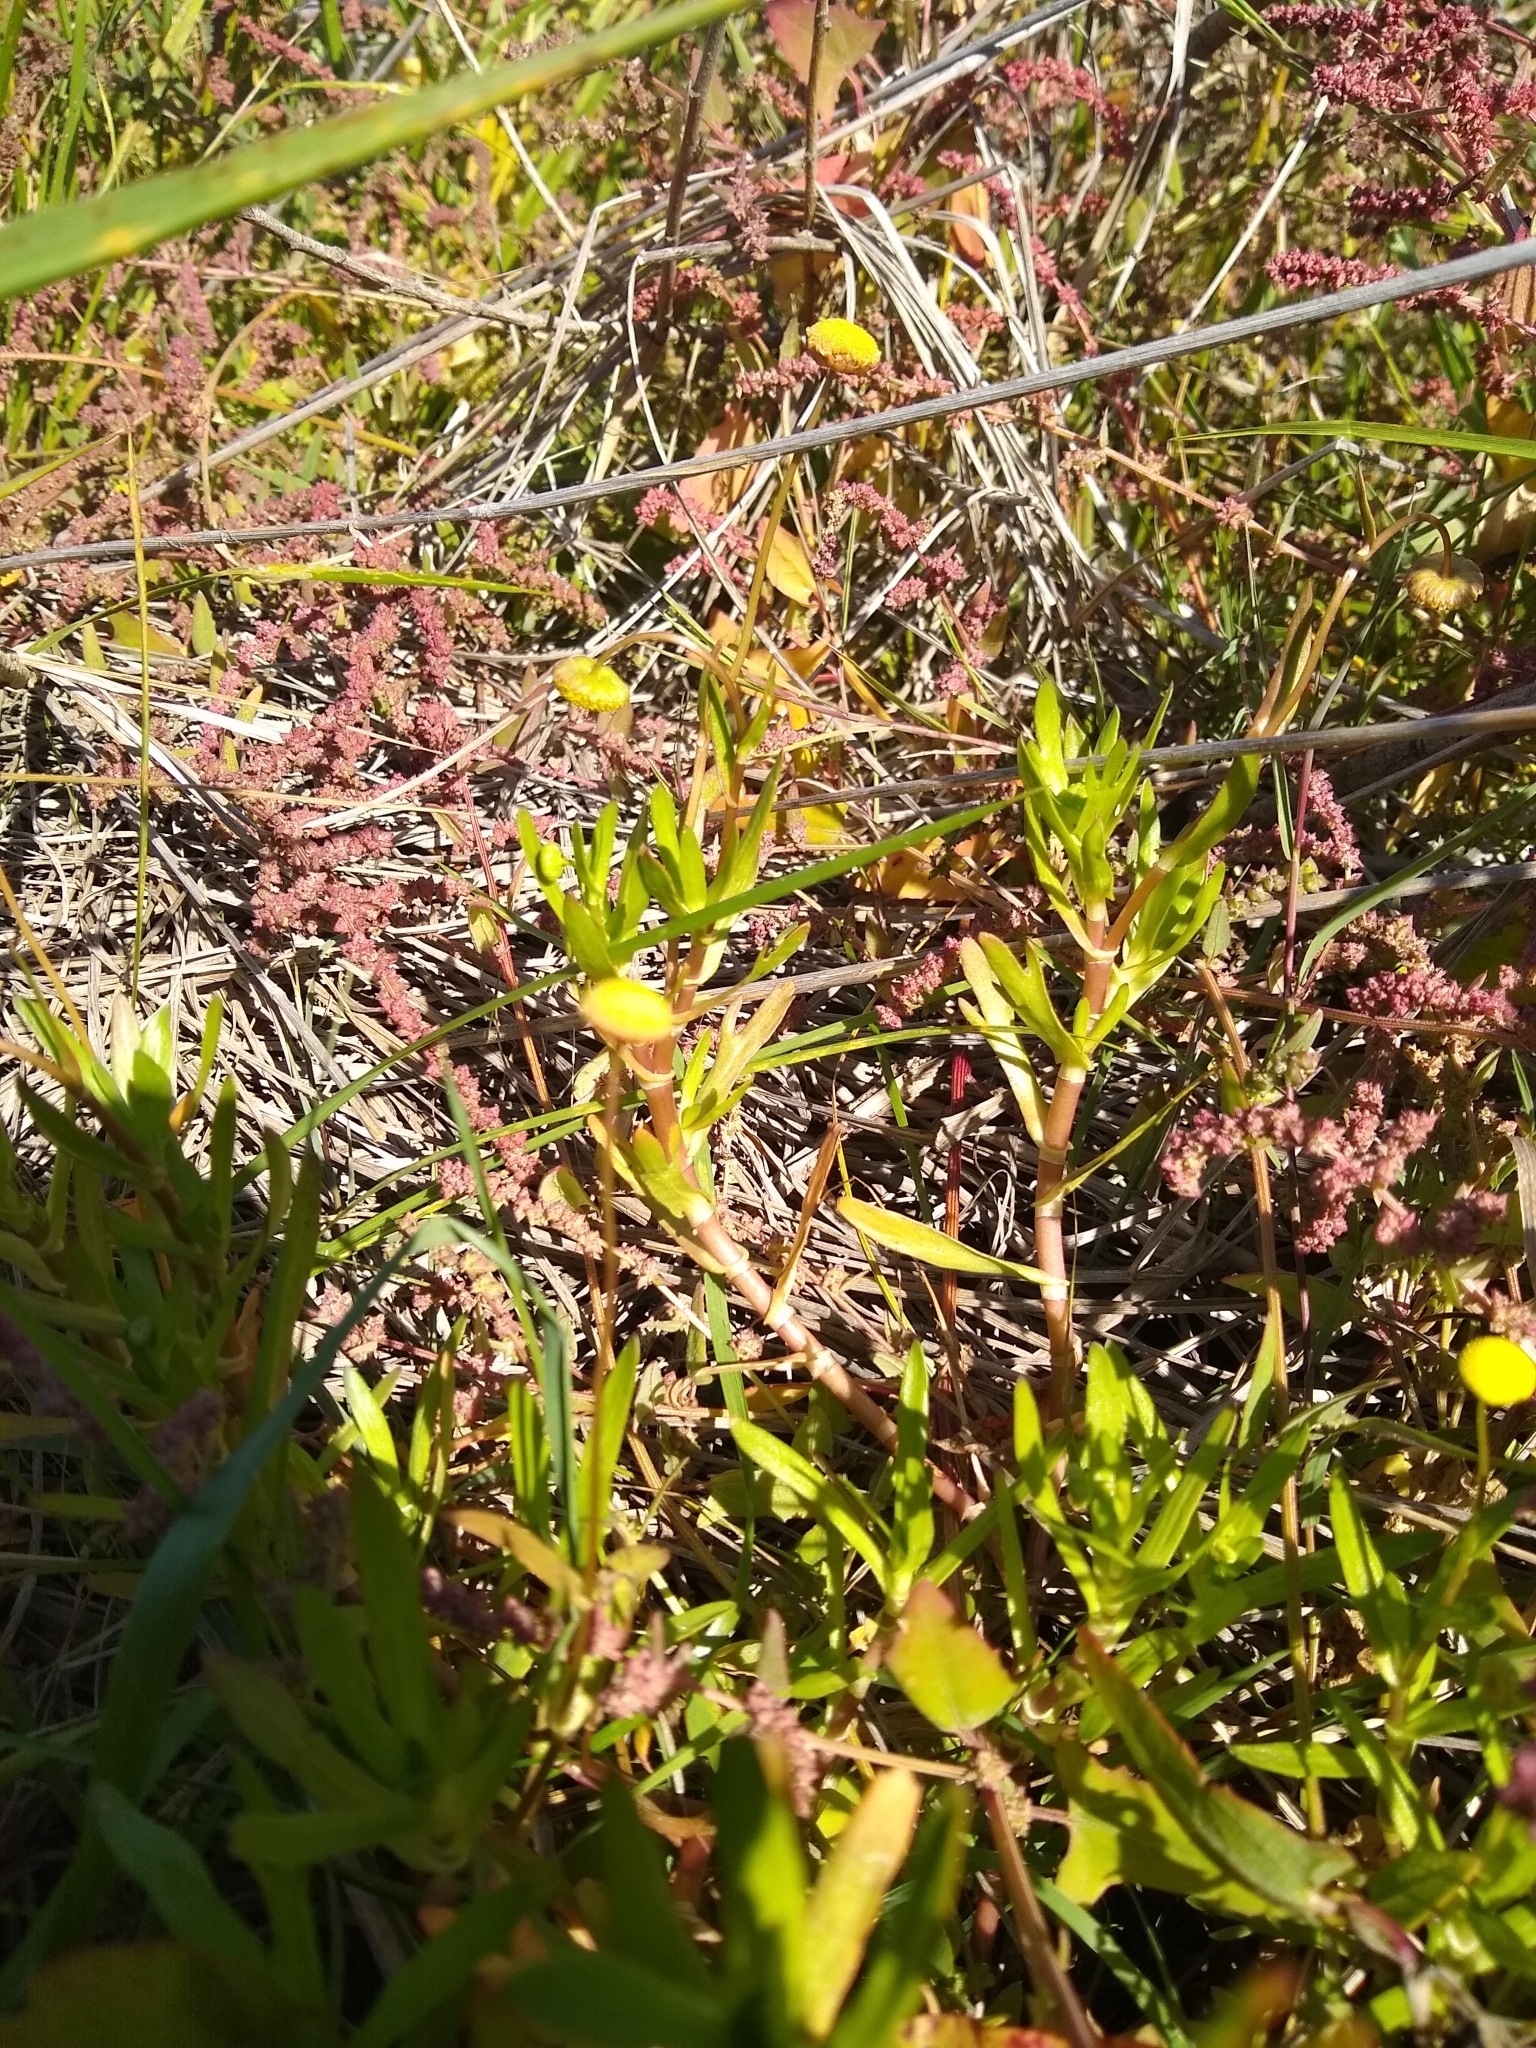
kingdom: Plantae
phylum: Tracheophyta
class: Magnoliopsida
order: Asterales
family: Asteraceae
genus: Cotula
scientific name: Cotula coronopifolia
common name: Buttonweed
